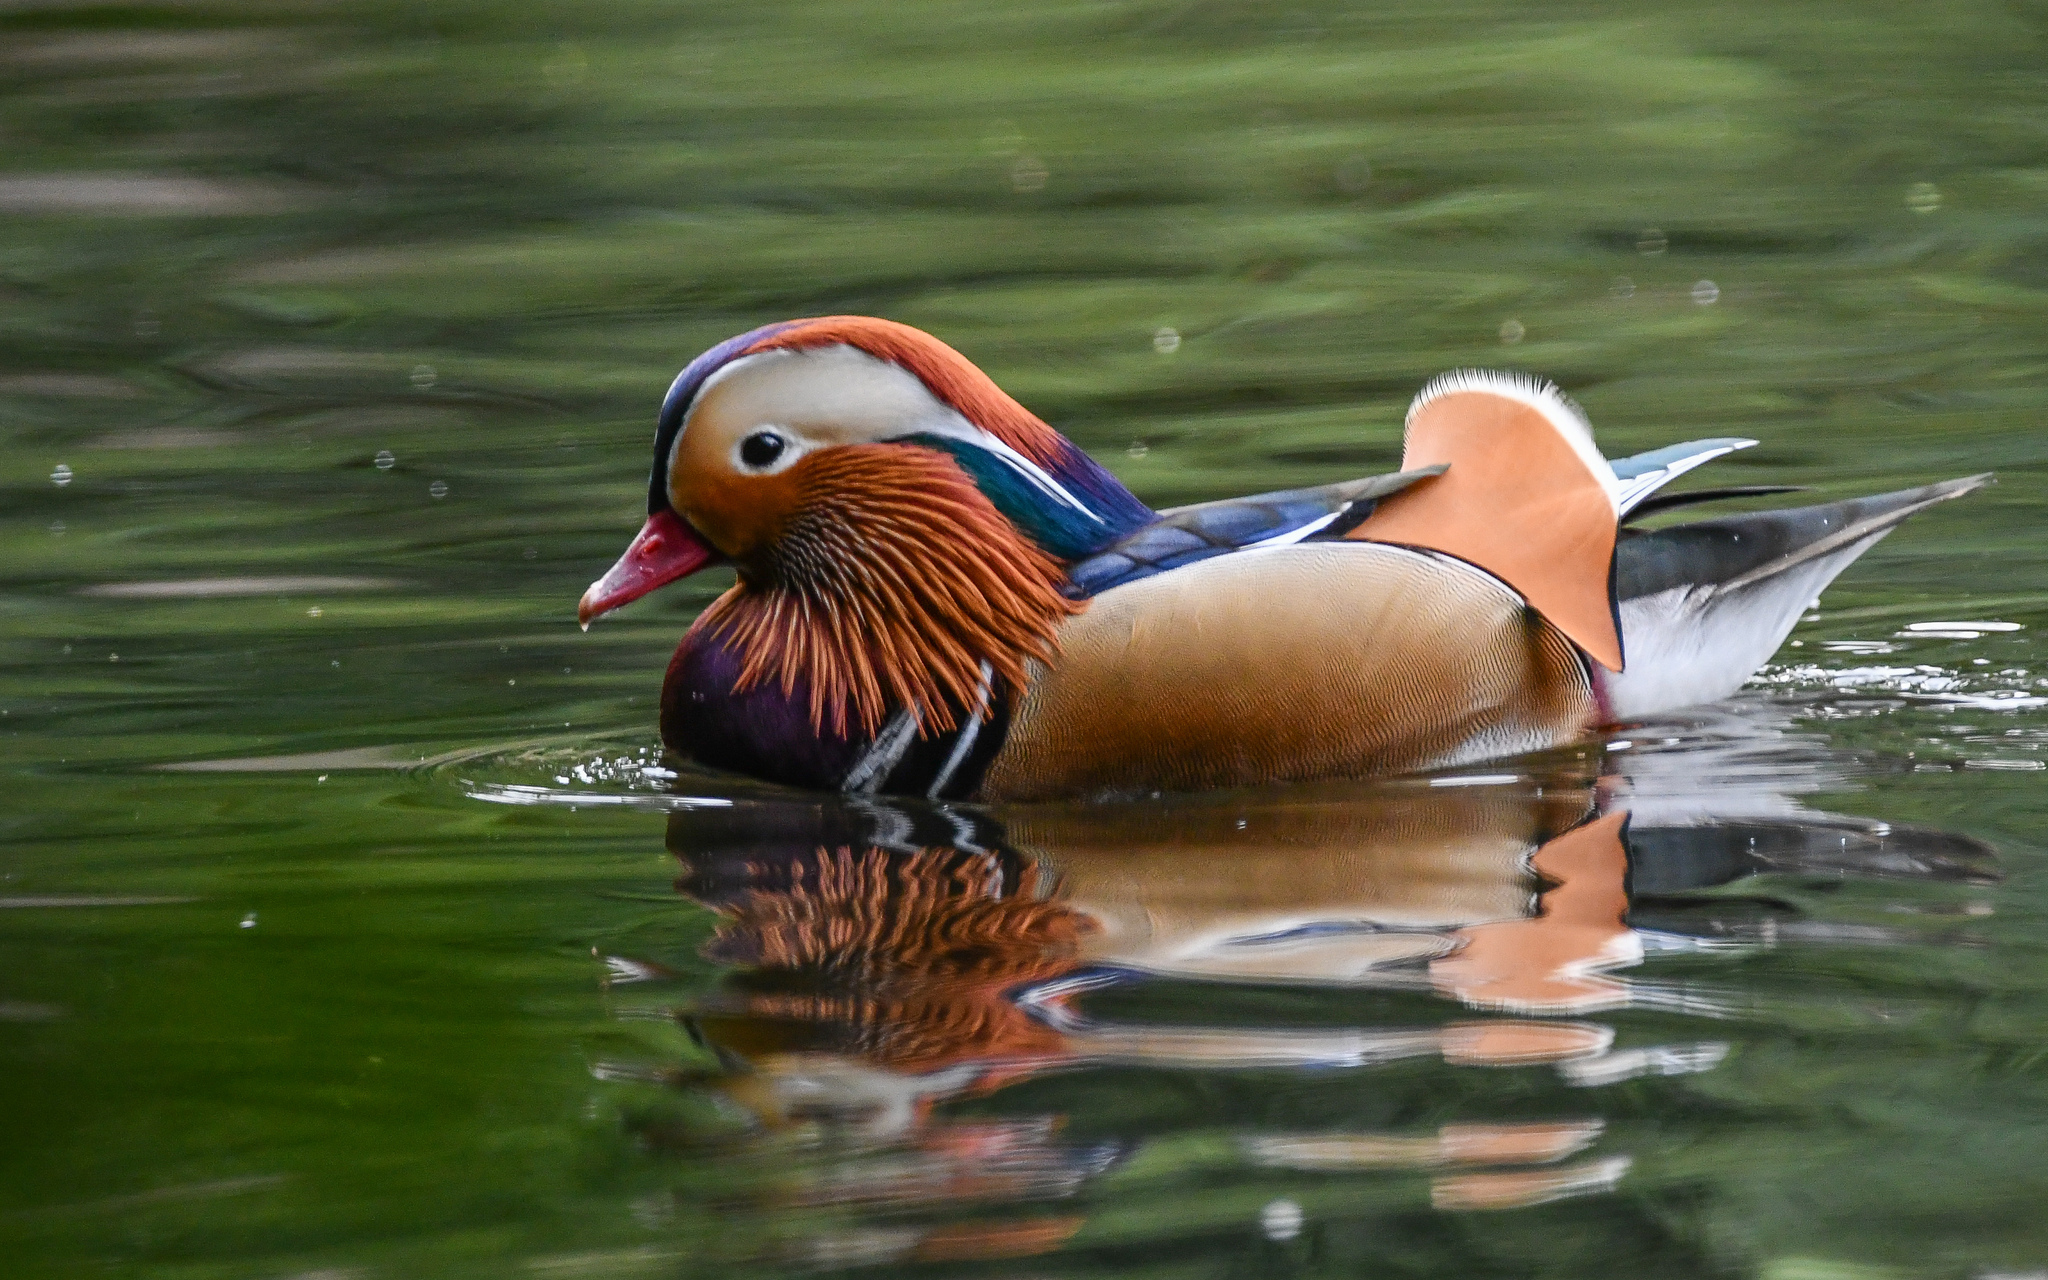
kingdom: Animalia
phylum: Chordata
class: Aves
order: Anseriformes
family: Anatidae
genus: Aix
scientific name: Aix galericulata
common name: Mandarin duck
